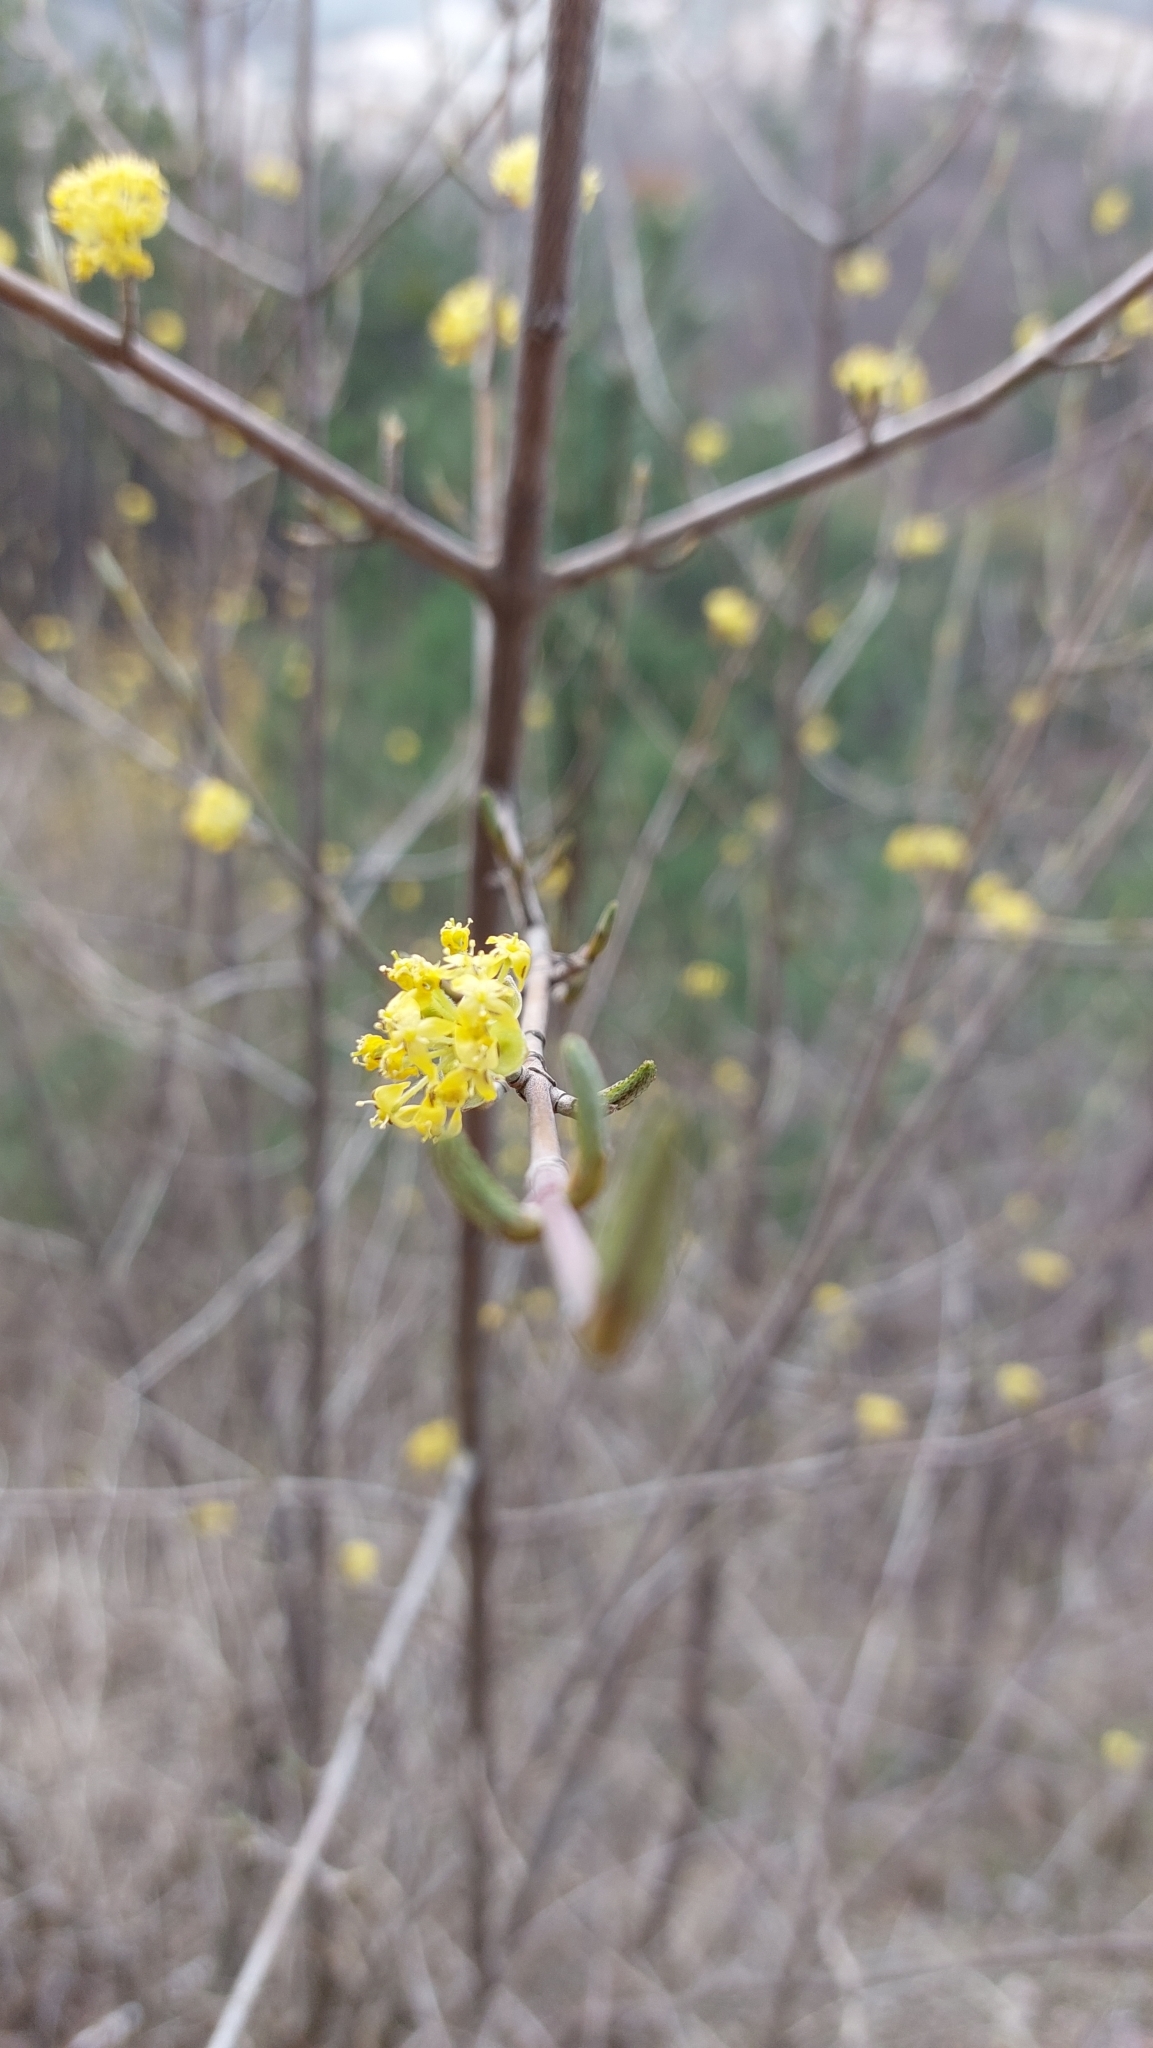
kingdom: Plantae
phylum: Tracheophyta
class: Magnoliopsida
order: Cornales
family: Cornaceae
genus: Cornus
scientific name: Cornus mas
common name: Cornelian-cherry
